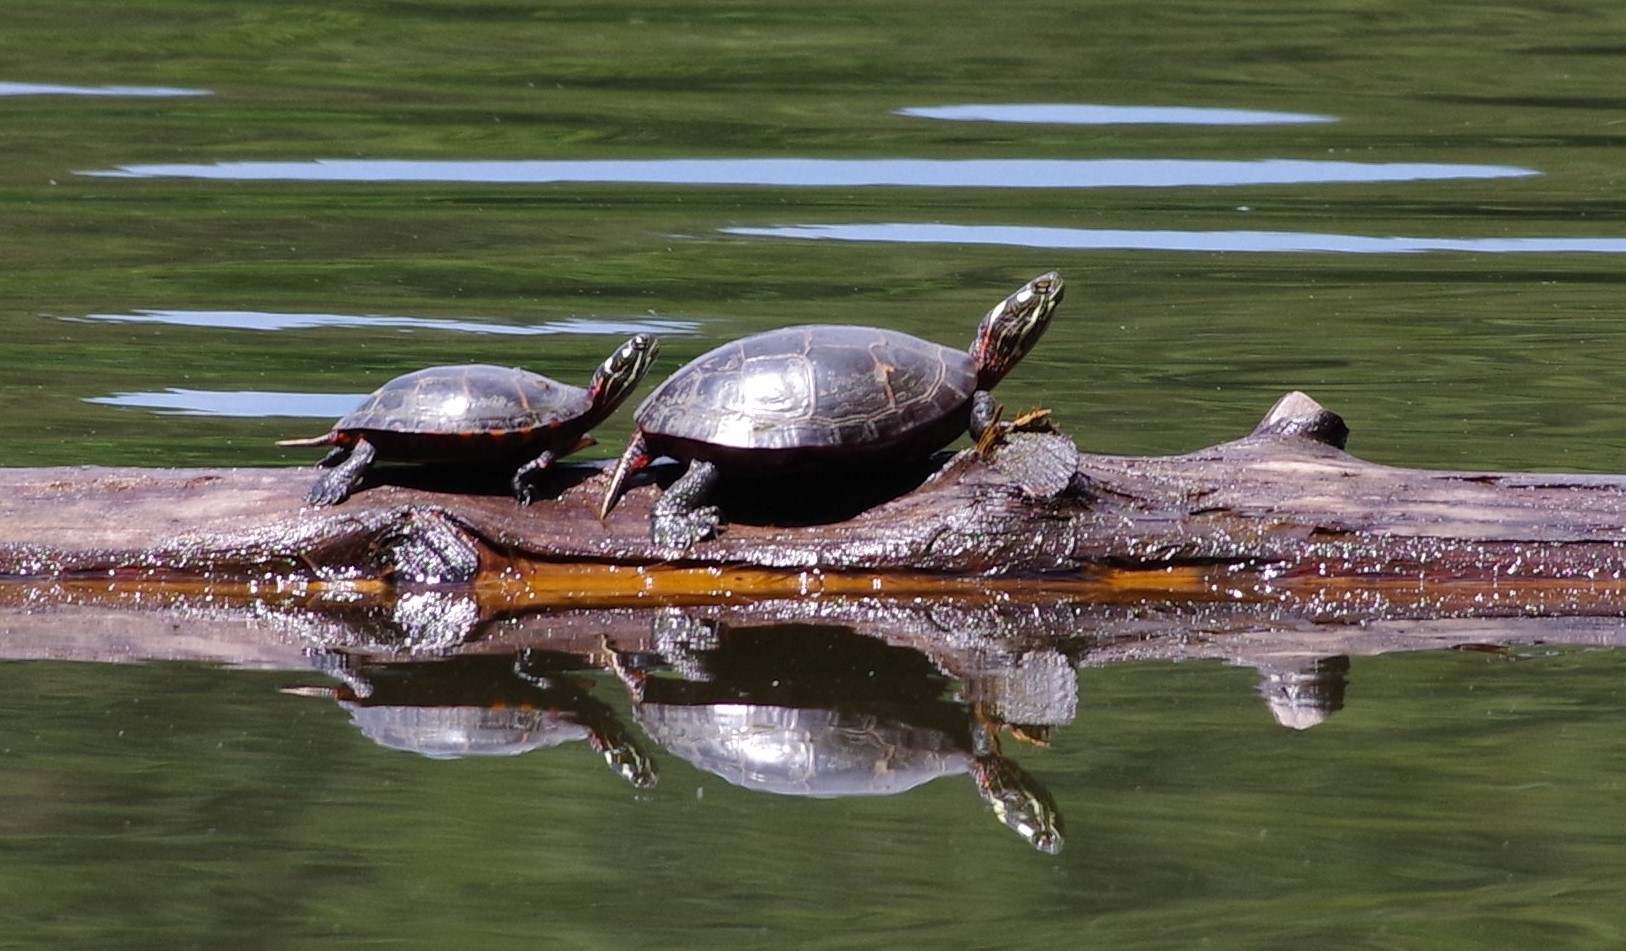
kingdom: Animalia
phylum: Chordata
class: Testudines
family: Emydidae
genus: Chrysemys
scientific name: Chrysemys picta
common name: Painted turtle
